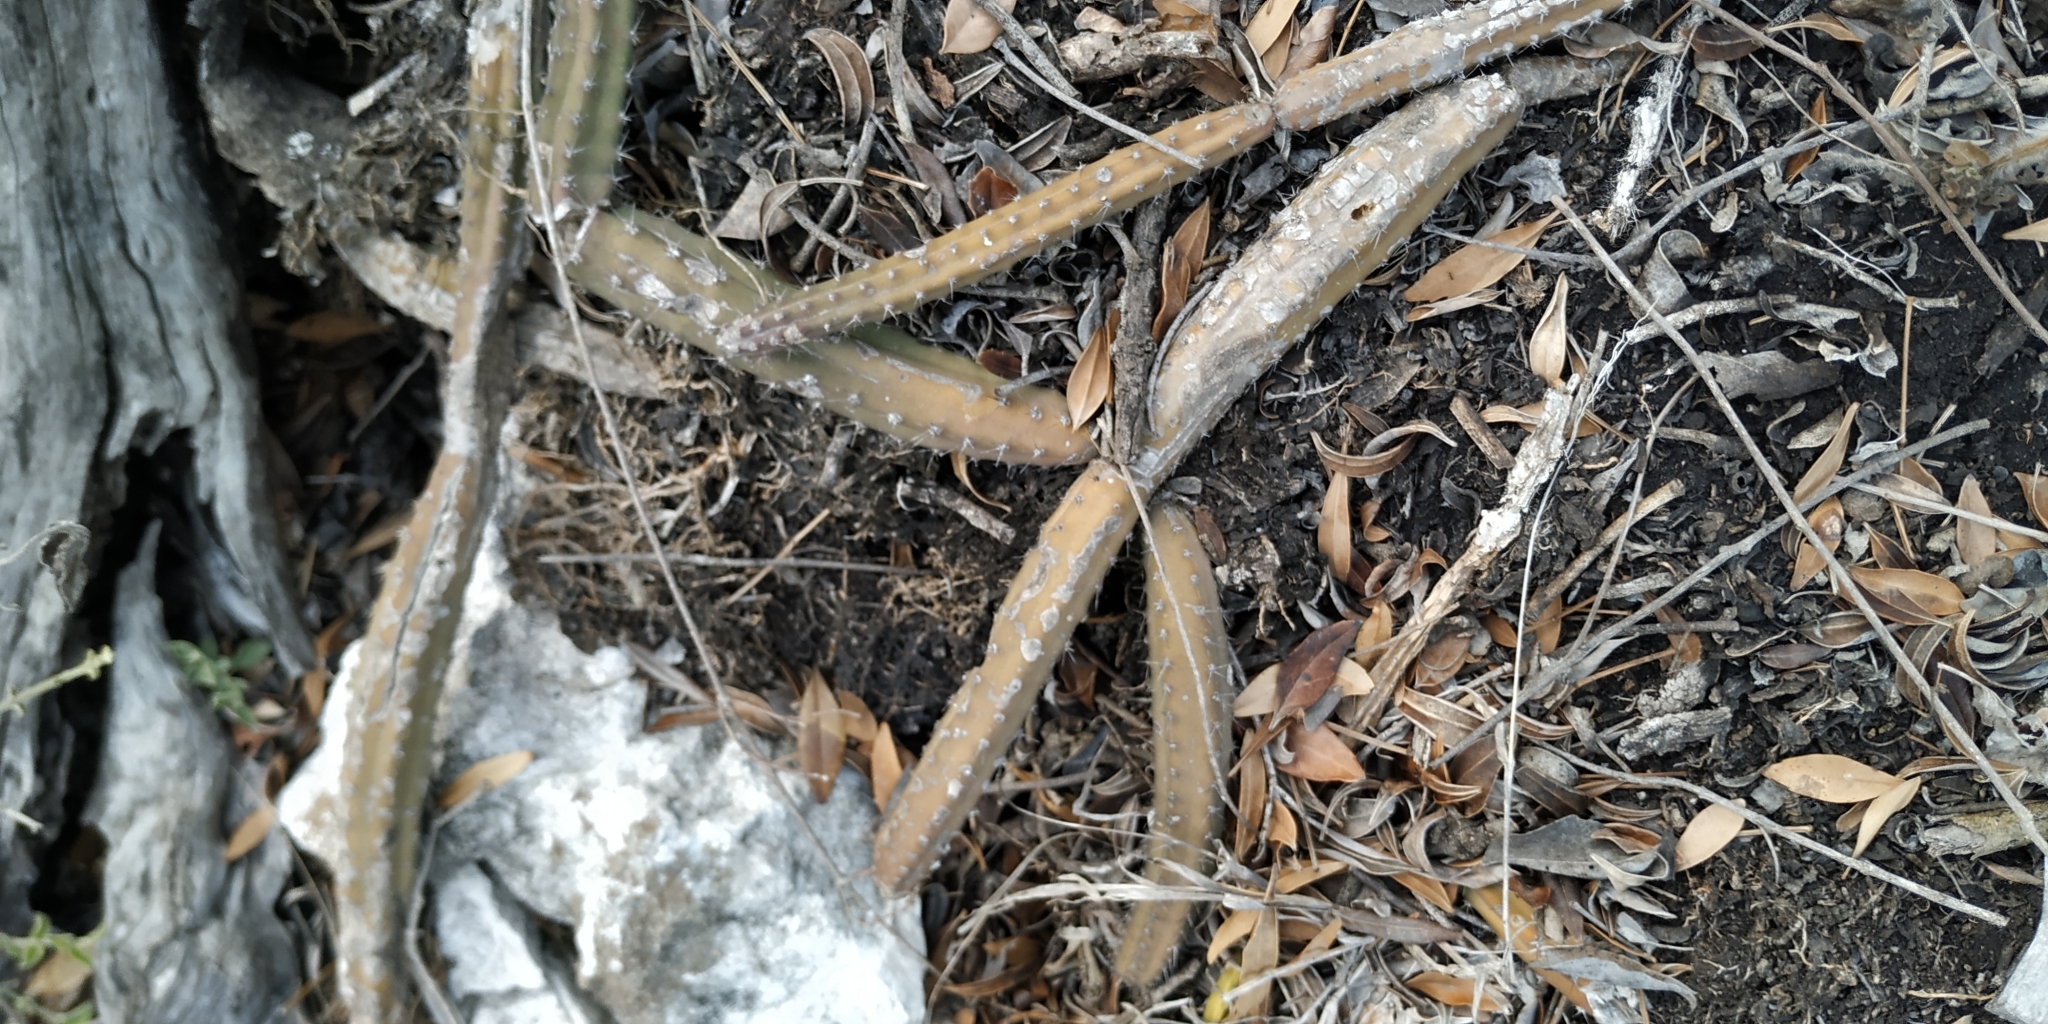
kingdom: Plantae
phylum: Tracheophyta
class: Magnoliopsida
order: Caryophyllales
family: Cactaceae
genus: Selenicereus
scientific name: Selenicereus grandiflorus
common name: Queen of the night
